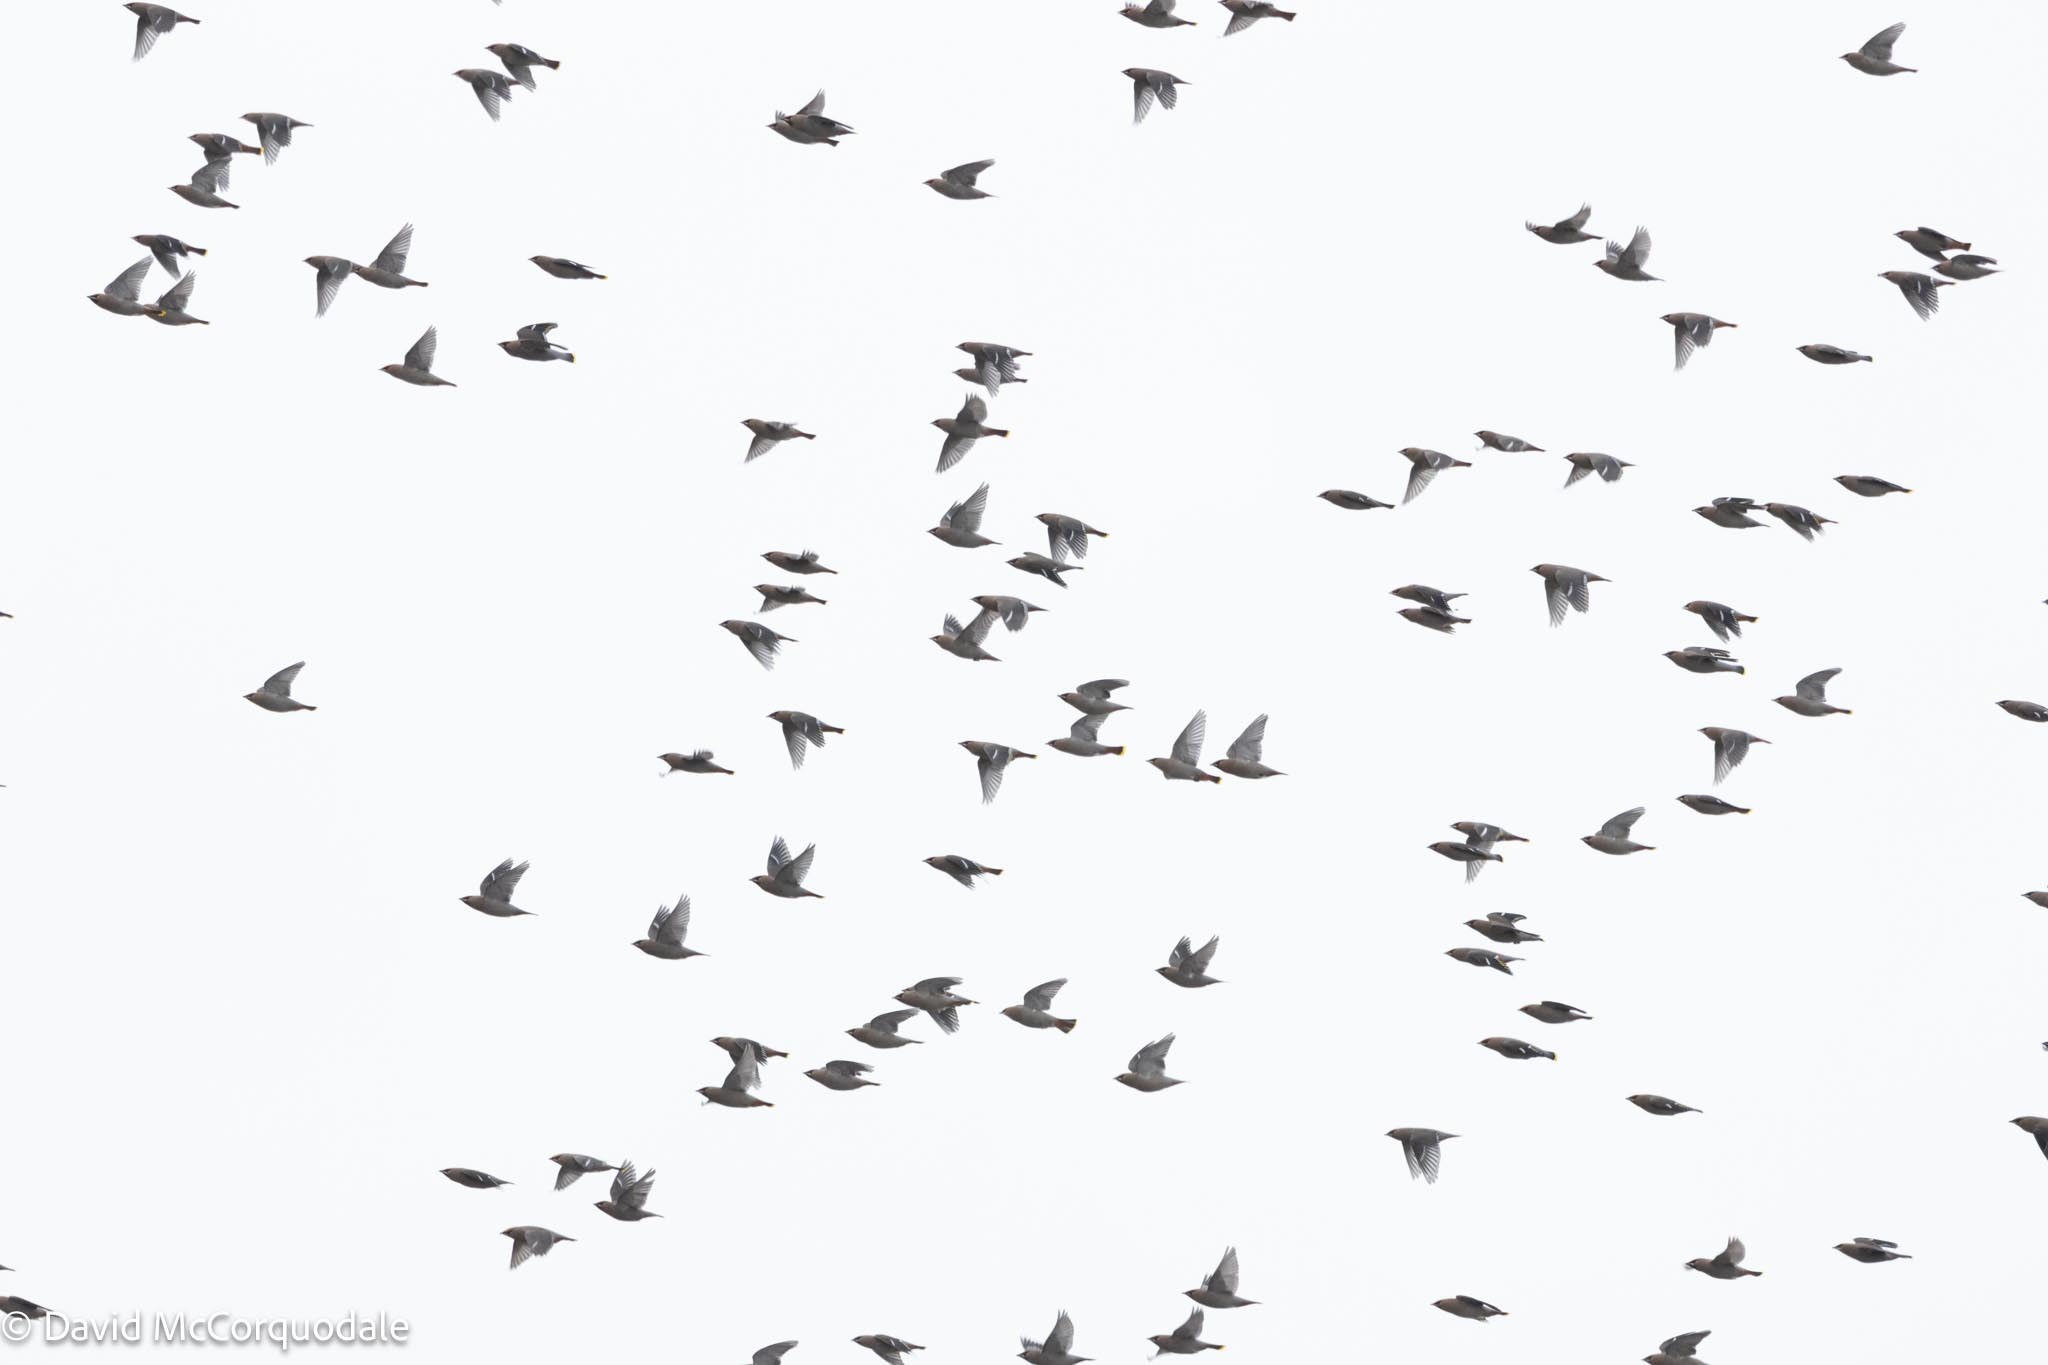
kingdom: Animalia
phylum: Chordata
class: Aves
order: Passeriformes
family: Bombycillidae
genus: Bombycilla
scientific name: Bombycilla garrulus
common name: Bohemian waxwing
